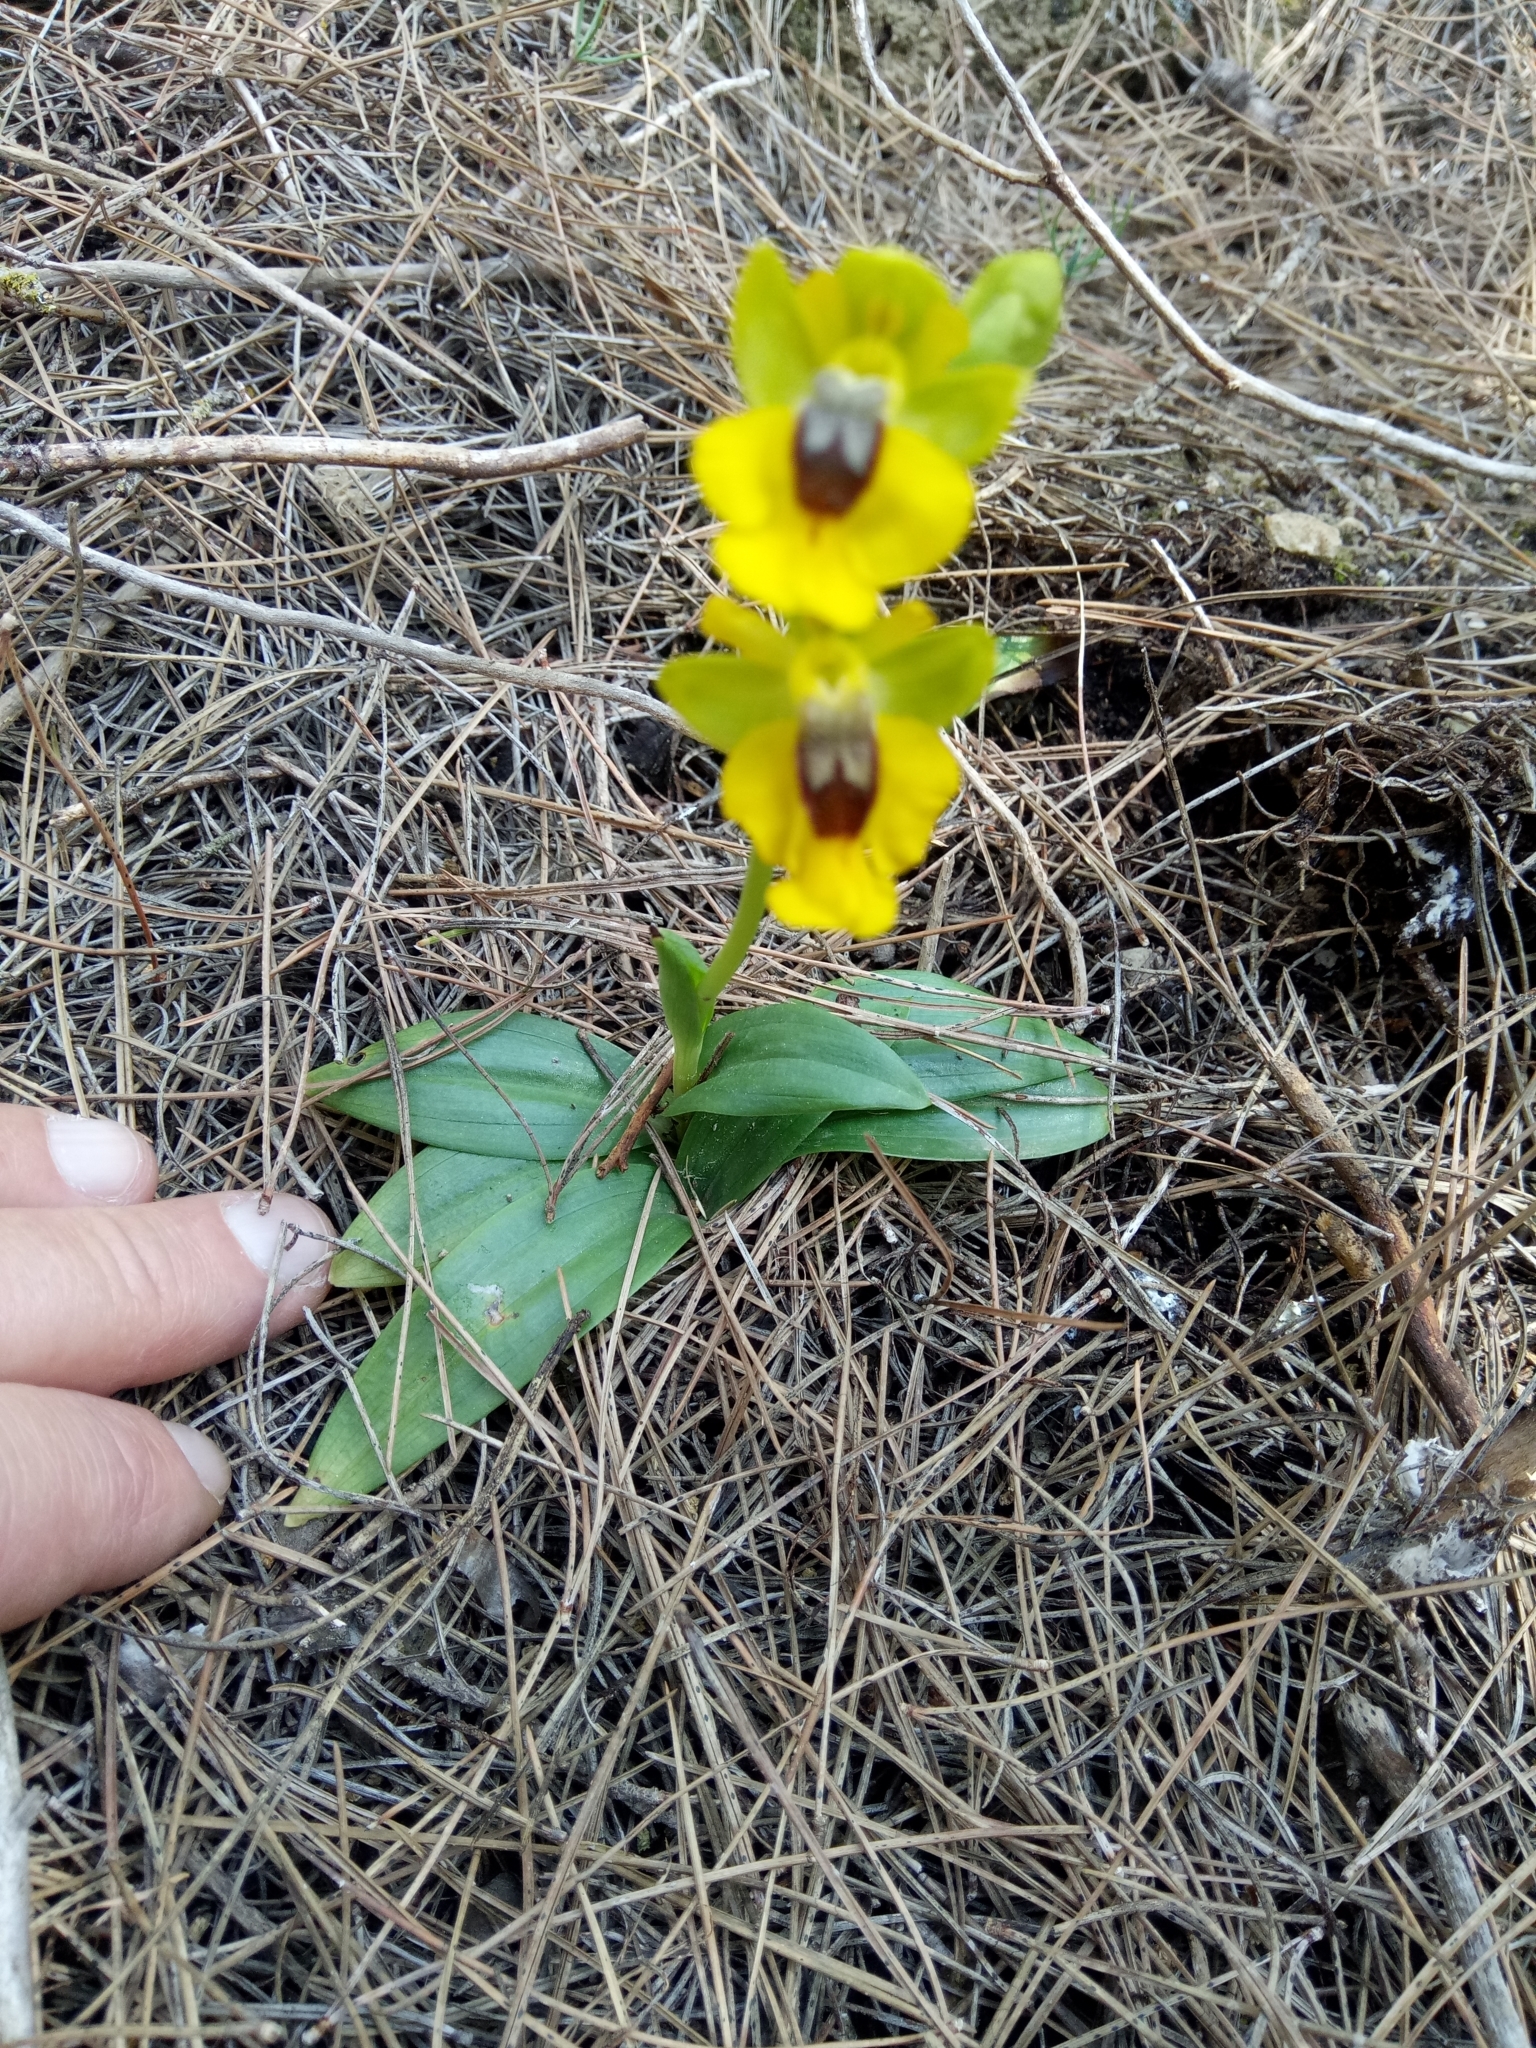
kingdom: Plantae
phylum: Tracheophyta
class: Liliopsida
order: Asparagales
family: Orchidaceae
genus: Ophrys
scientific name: Ophrys lutea
